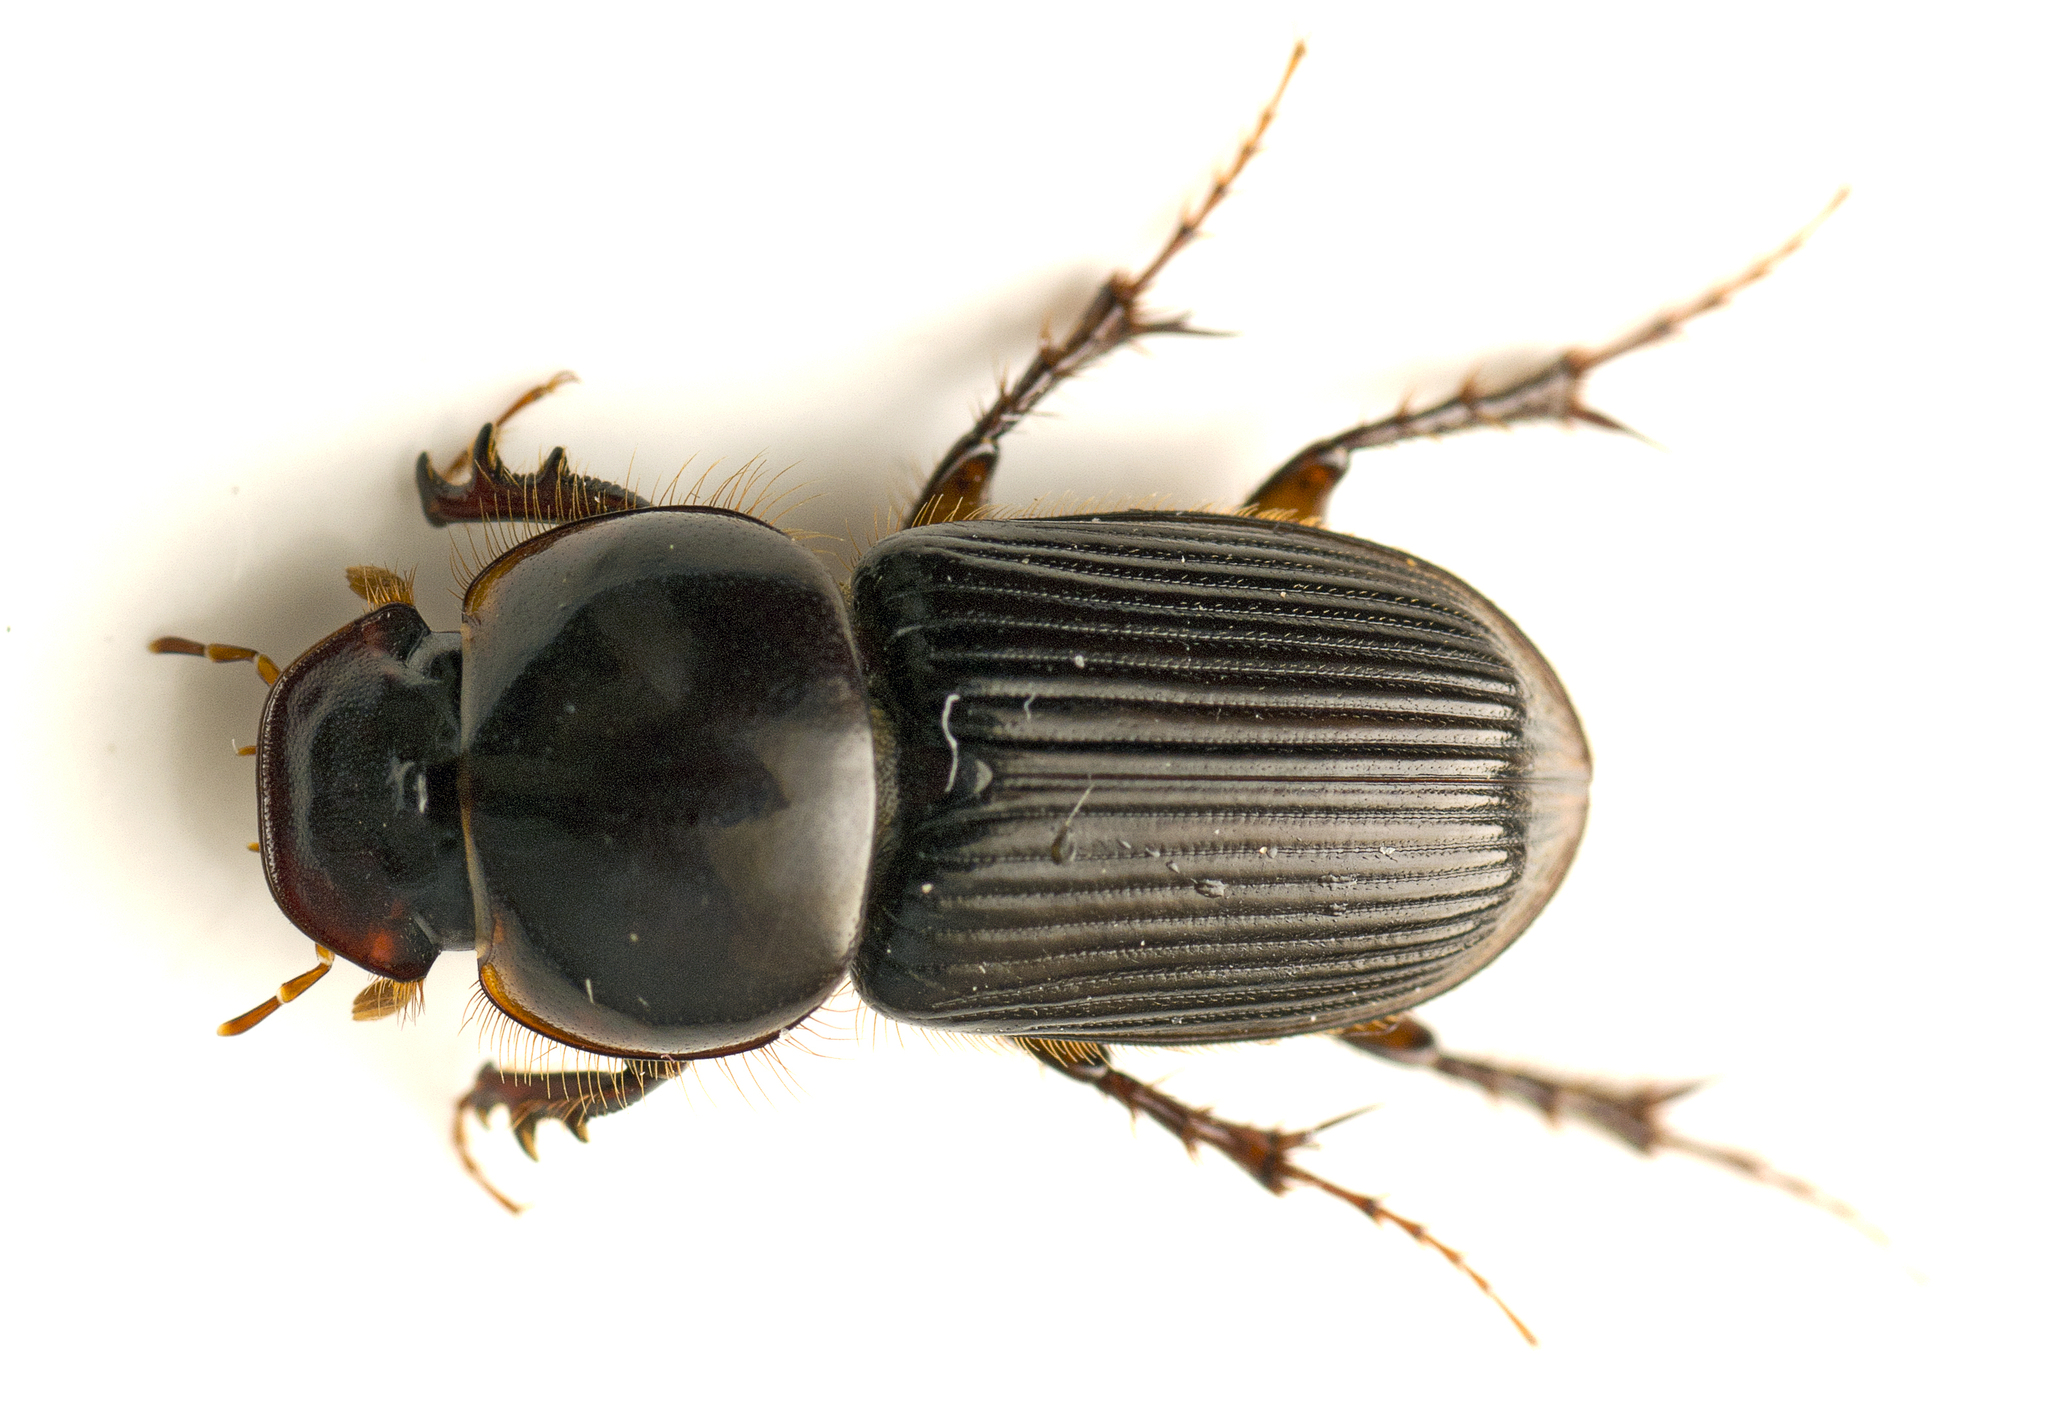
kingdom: Animalia
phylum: Arthropoda
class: Insecta
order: Coleoptera
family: Scarabaeidae
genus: Acrossidius
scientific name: Acrossidius tasmaniae
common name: Black-headed pasture cockchafer
